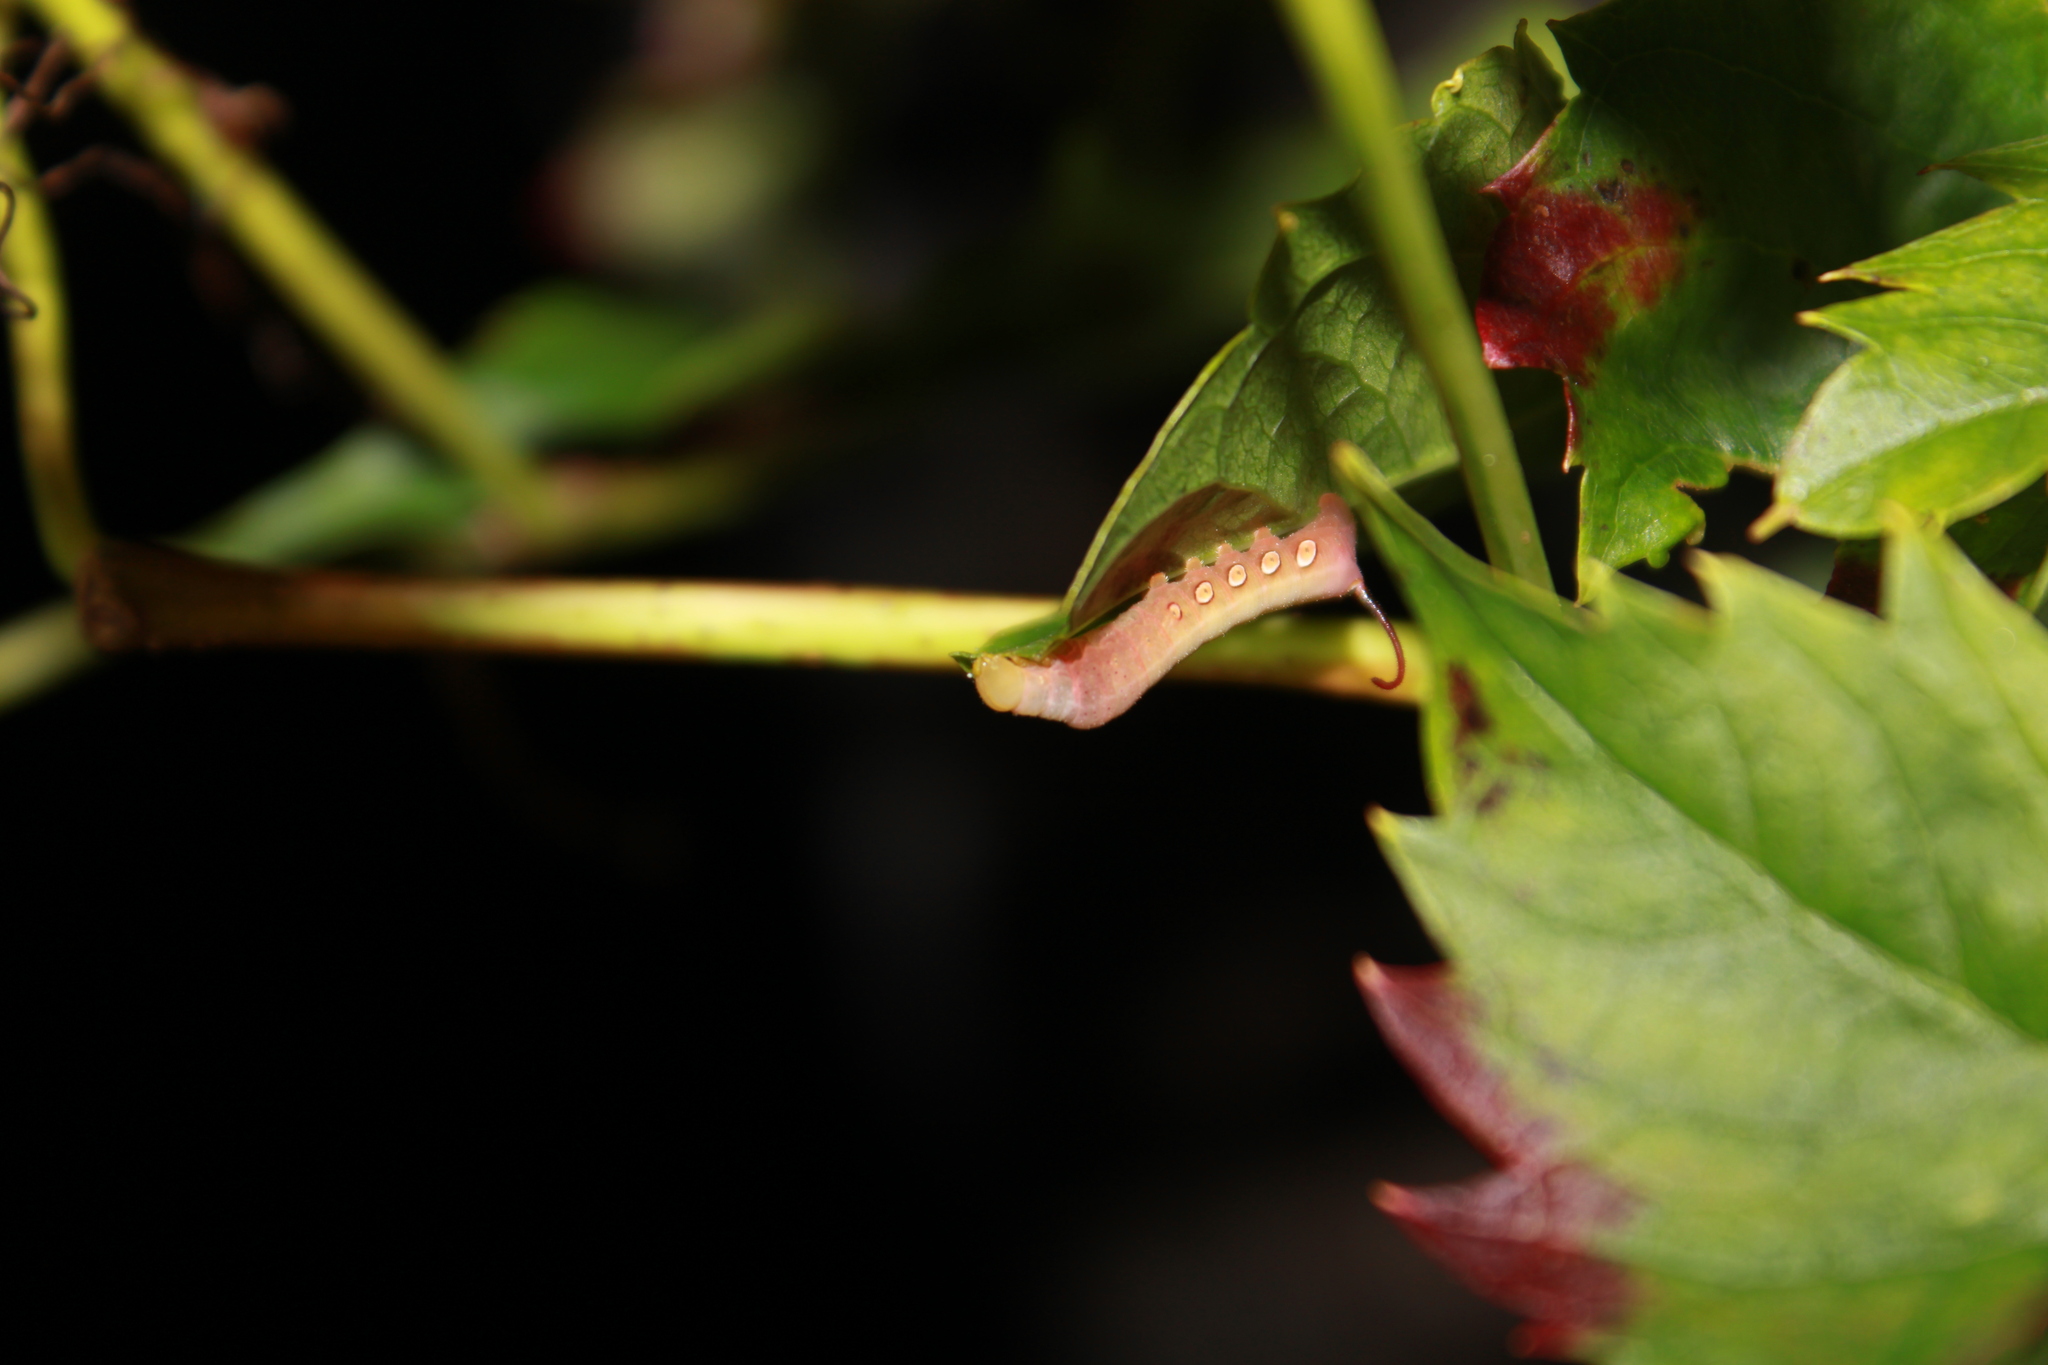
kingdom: Animalia
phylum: Arthropoda
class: Insecta
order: Lepidoptera
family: Sphingidae
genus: Eumorpha
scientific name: Eumorpha pandorus
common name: Pandora sphinx
